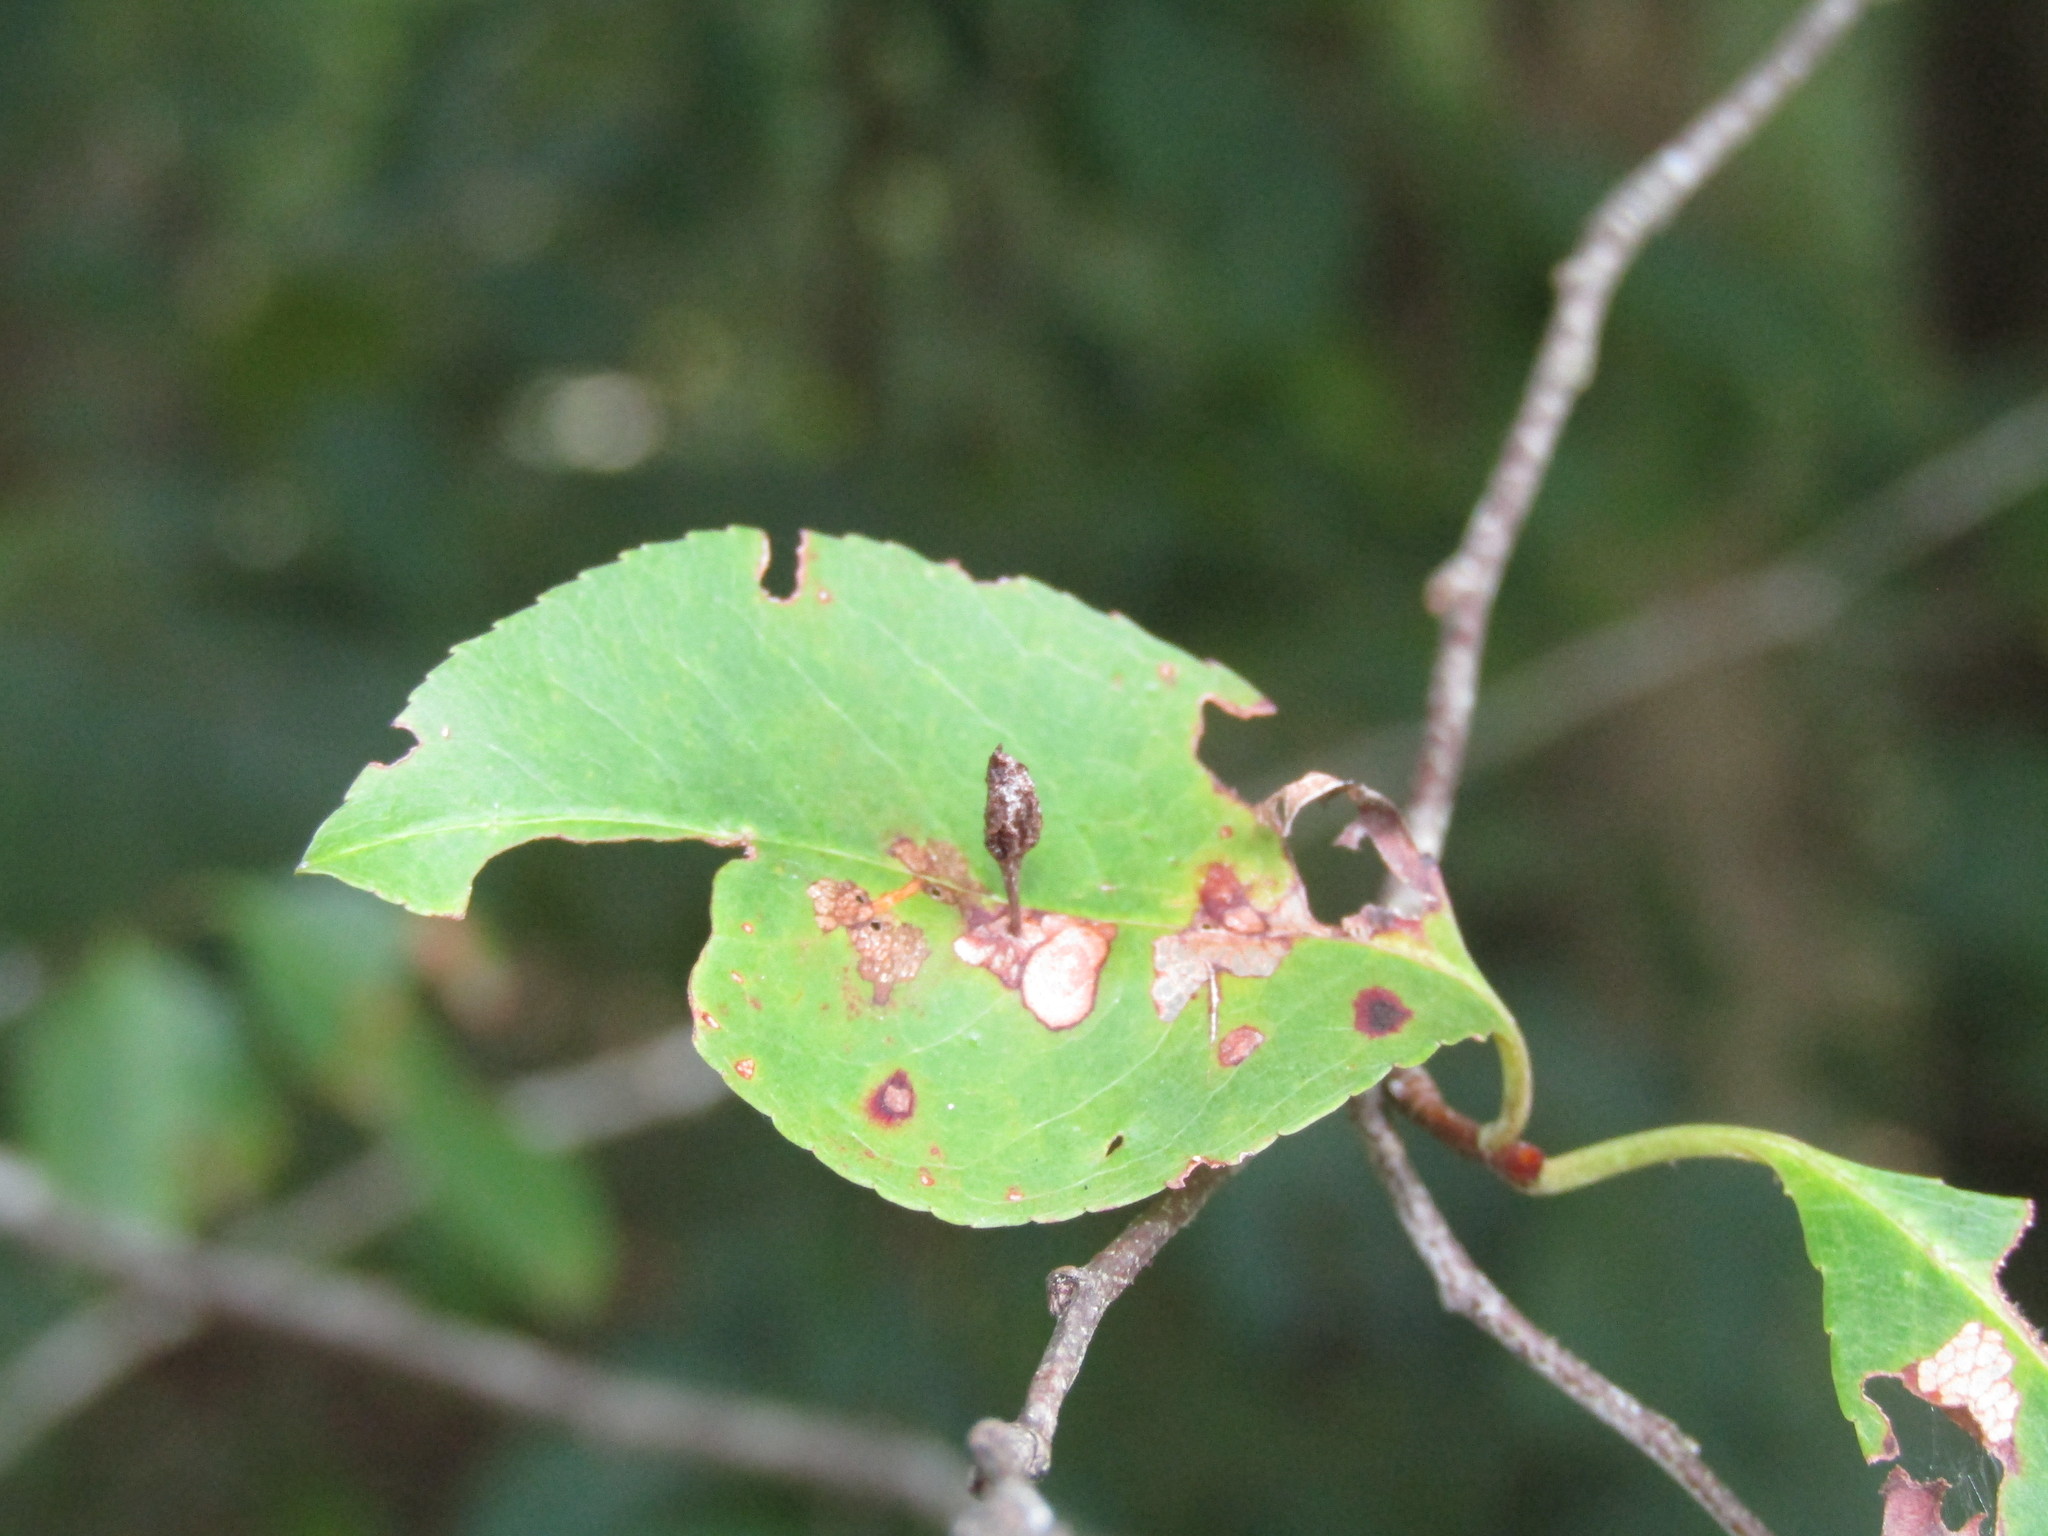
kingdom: Animalia
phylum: Arthropoda
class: Arachnida
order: Trombidiformes
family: Eriophyidae
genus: Eriophyes
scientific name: Eriophyes
